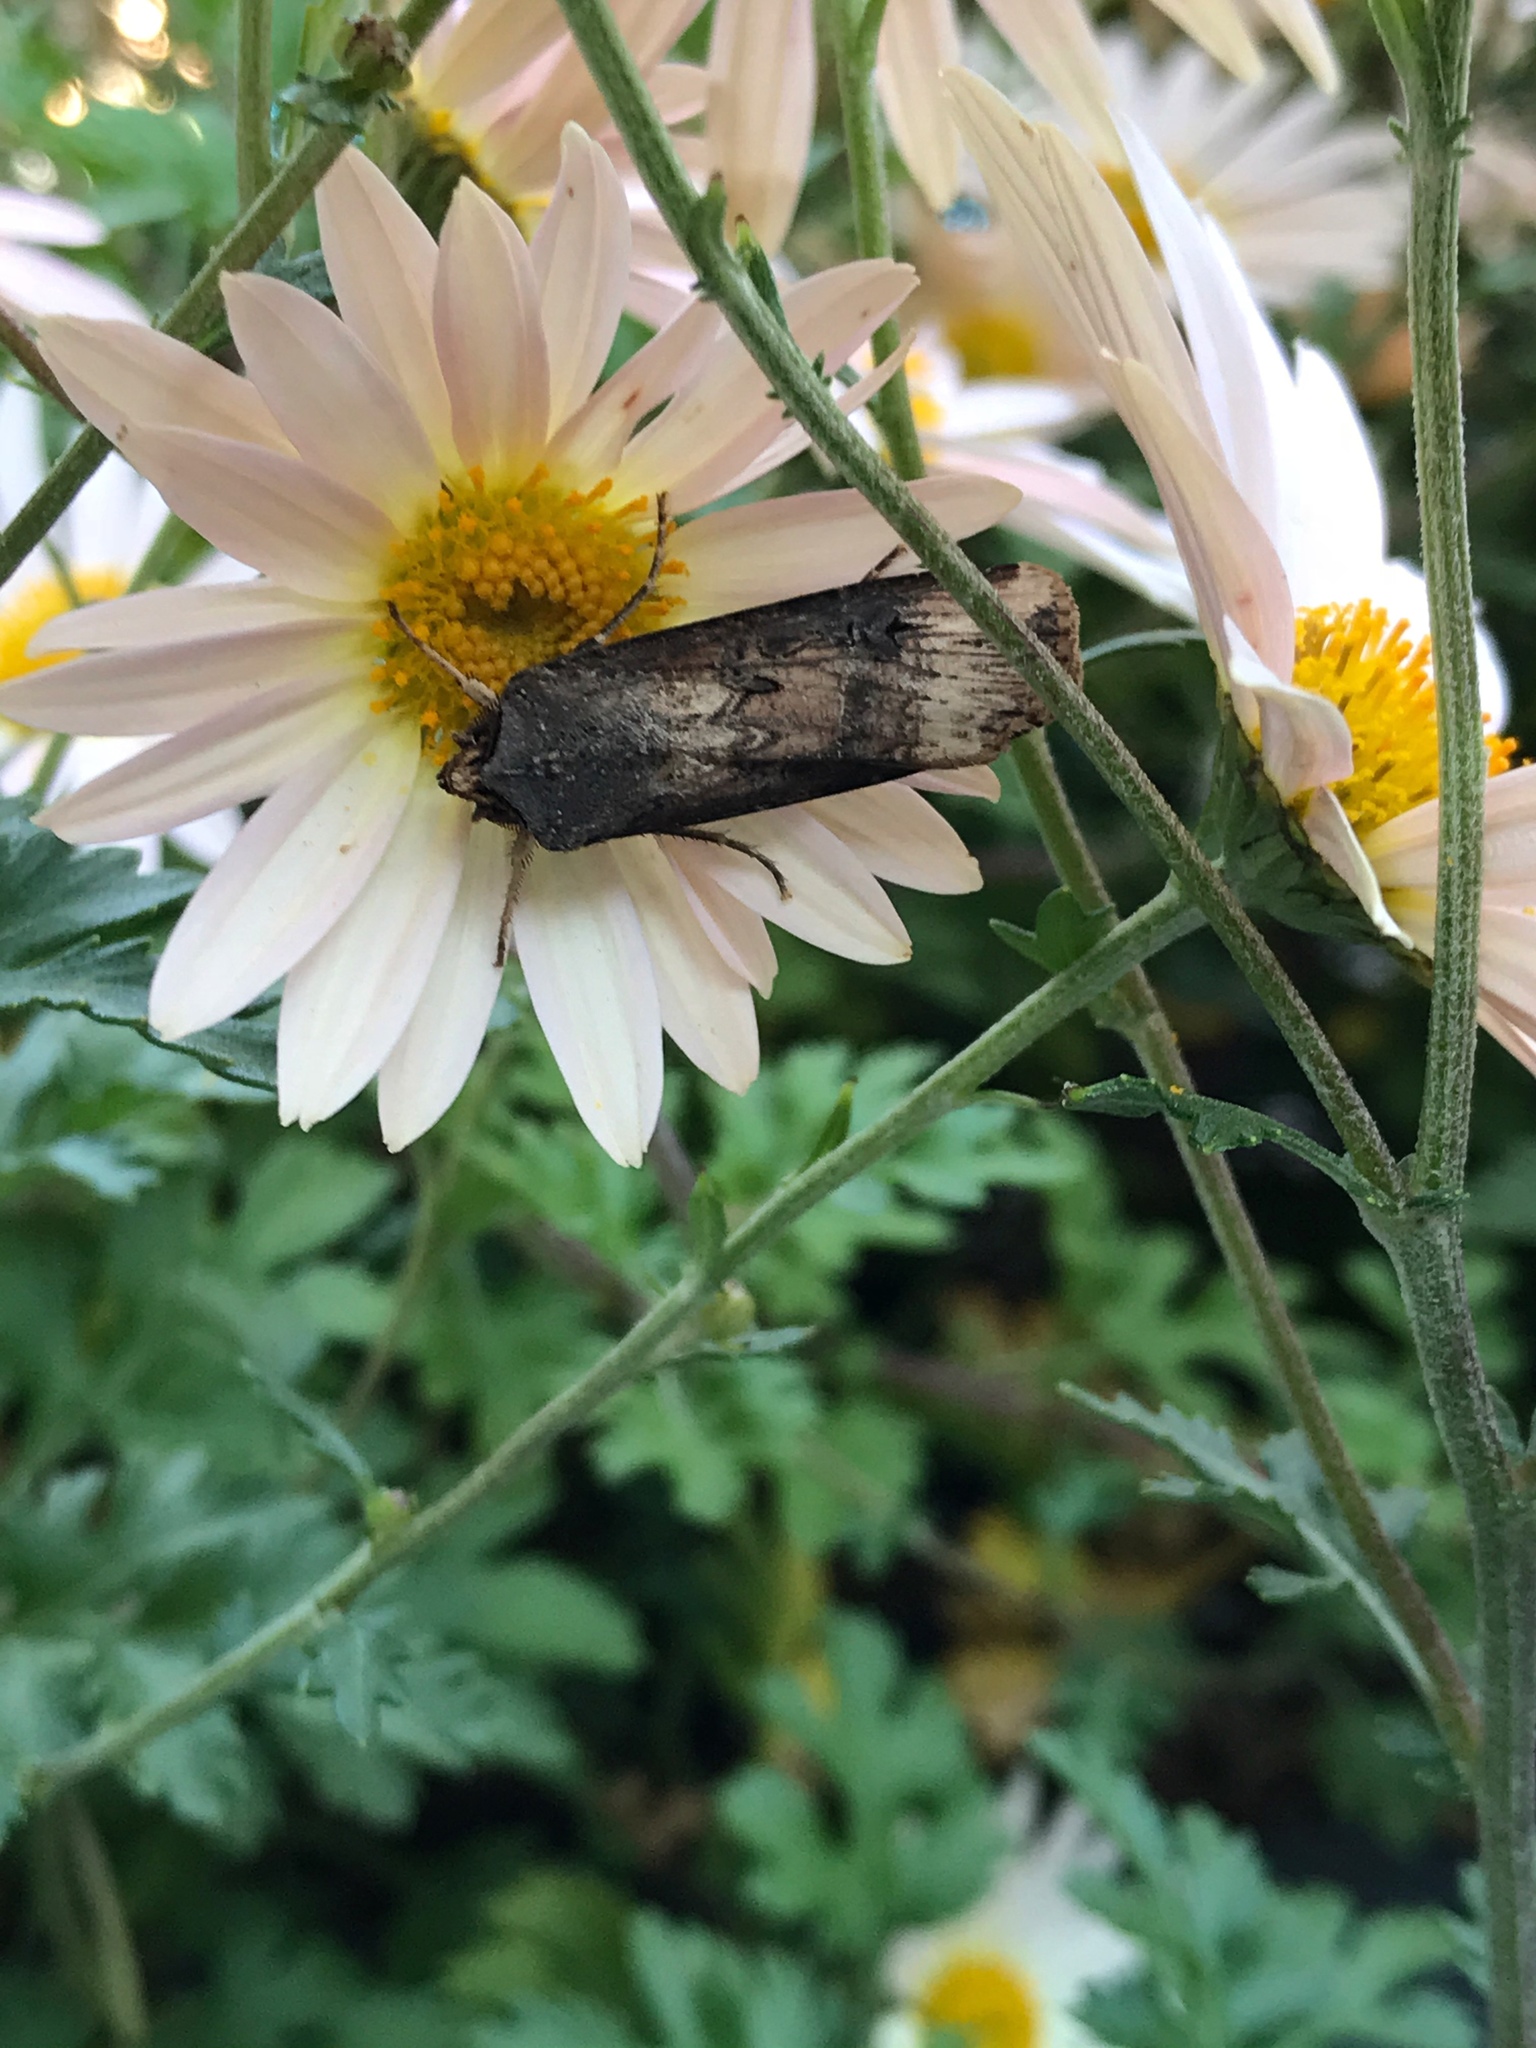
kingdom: Animalia
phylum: Arthropoda
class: Insecta
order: Lepidoptera
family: Noctuidae
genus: Agrotis
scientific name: Agrotis ipsilon
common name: Dark sword-grass
